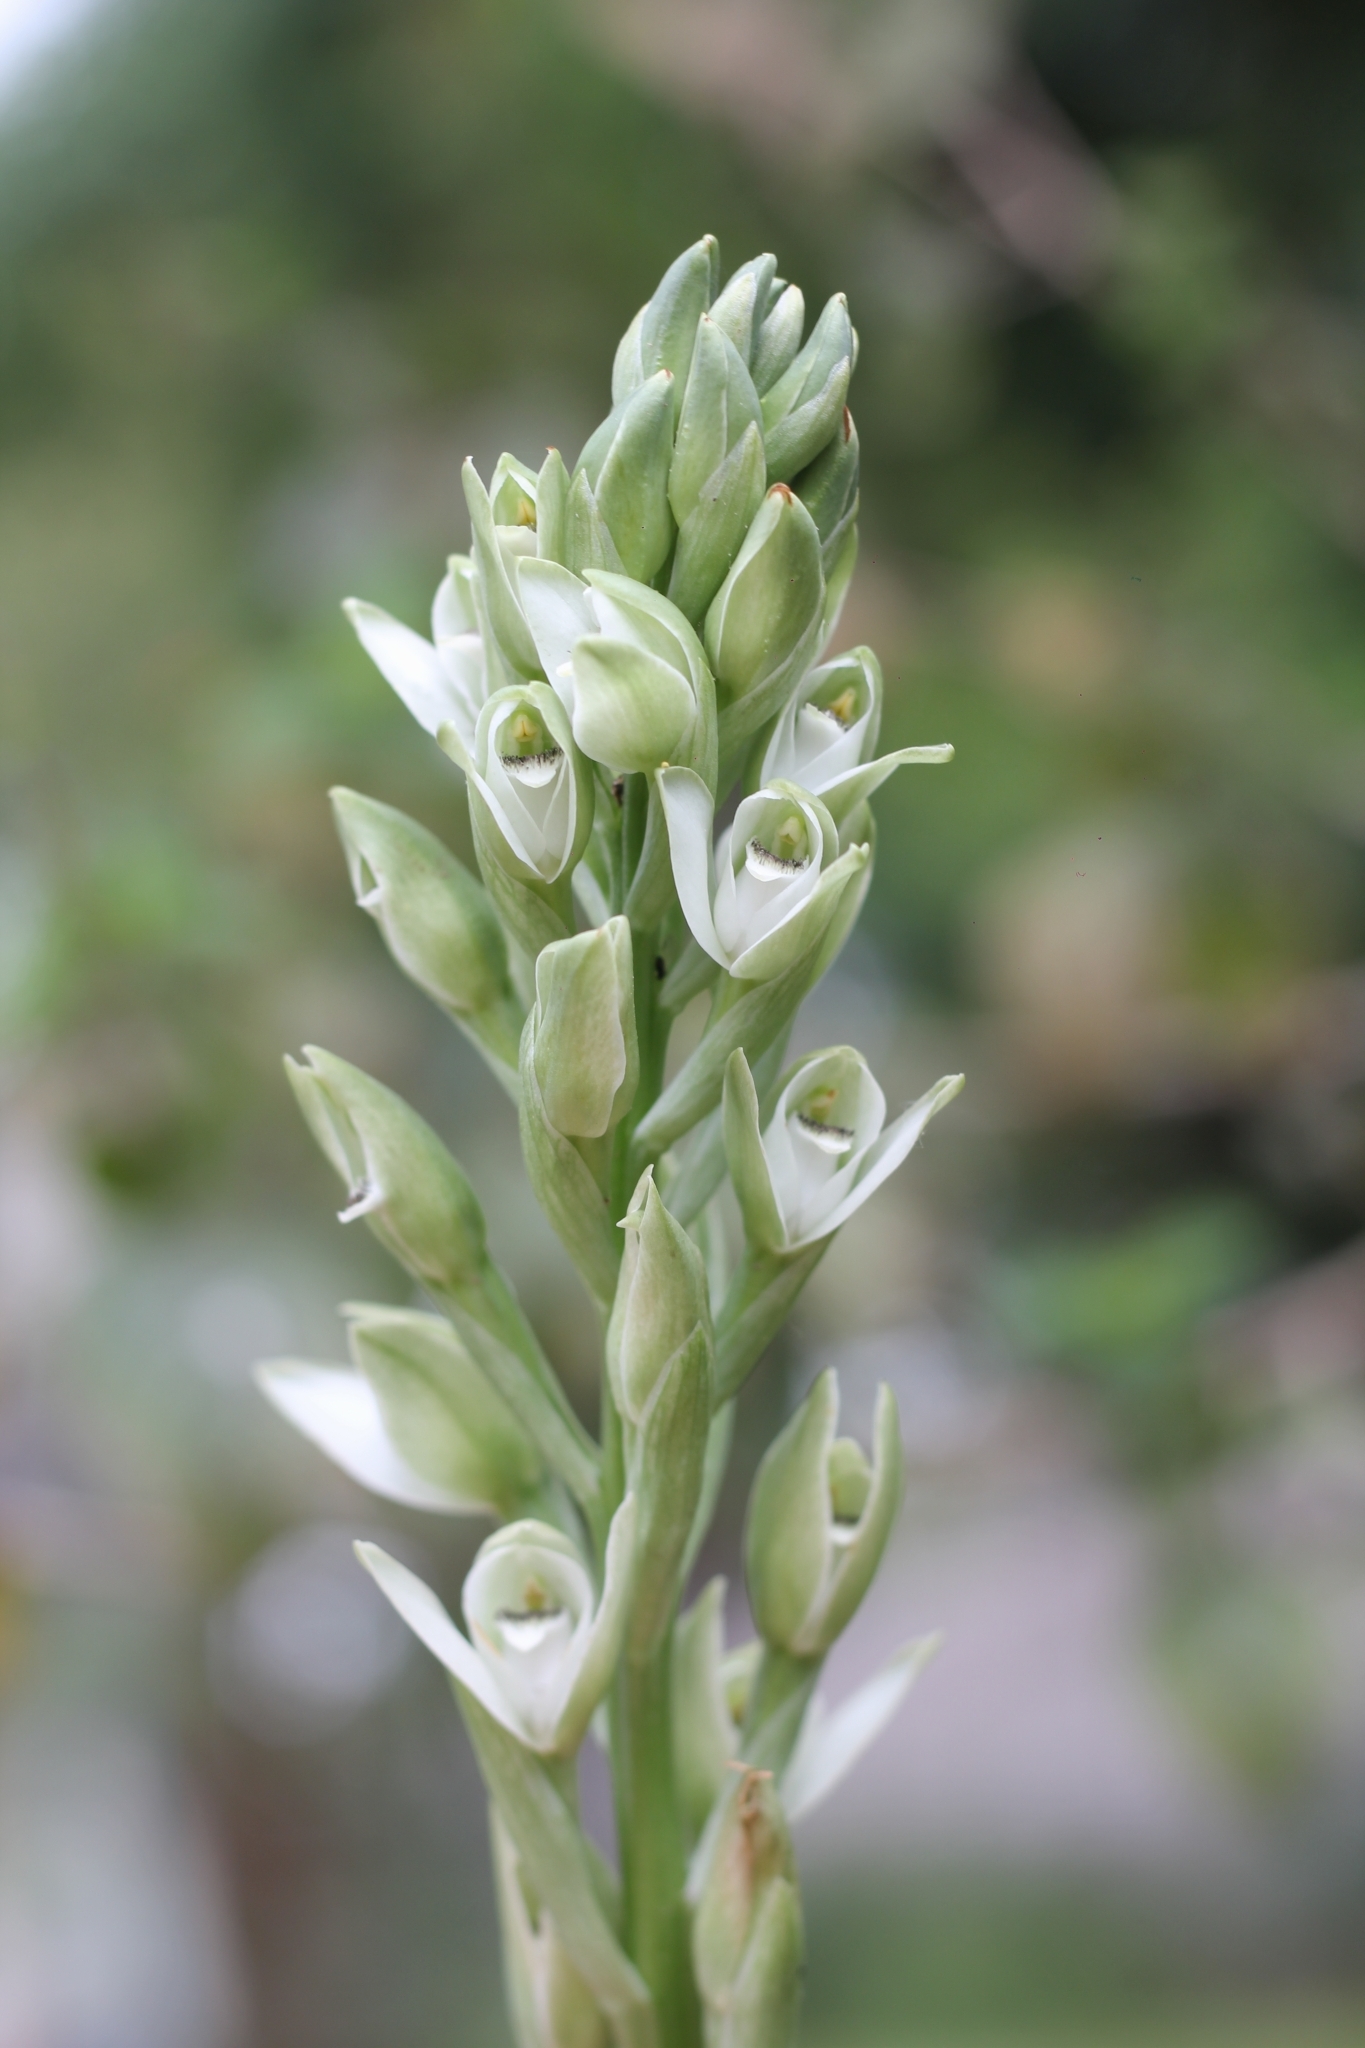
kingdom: Plantae
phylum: Tracheophyta
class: Liliopsida
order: Asparagales
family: Orchidaceae
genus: Chloraea
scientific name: Chloraea membranacea
